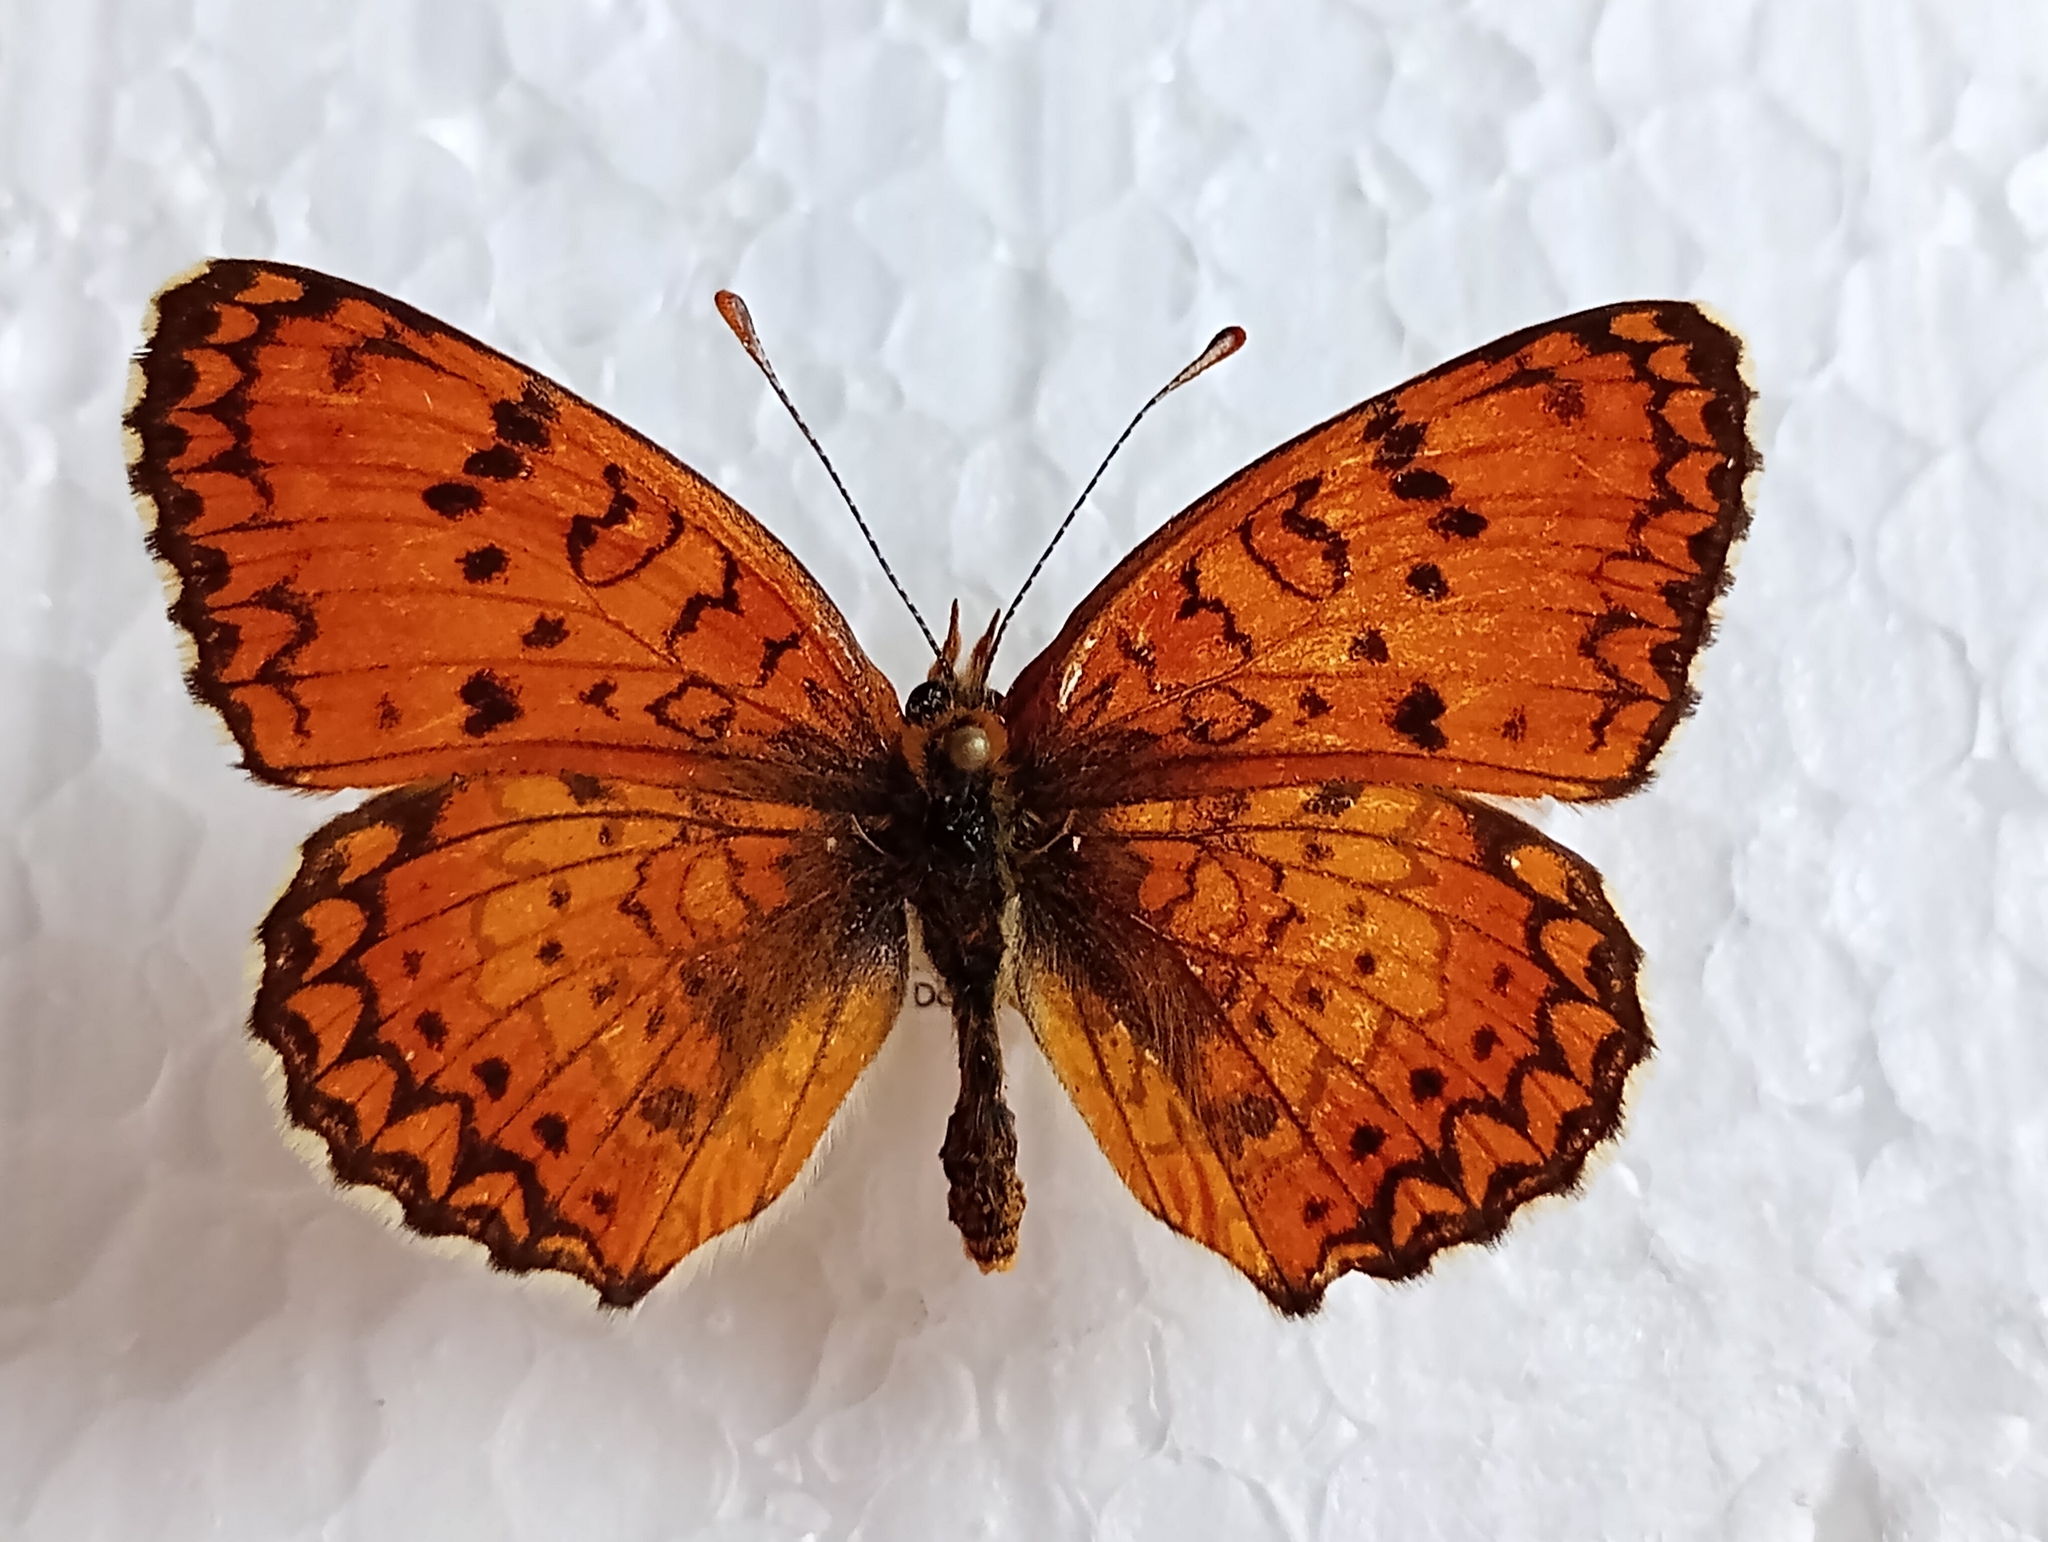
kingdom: Animalia
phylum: Arthropoda
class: Insecta
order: Lepidoptera
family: Nymphalidae
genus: Melitaea
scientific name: Melitaea arduinna
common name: Freyer's fritillary
